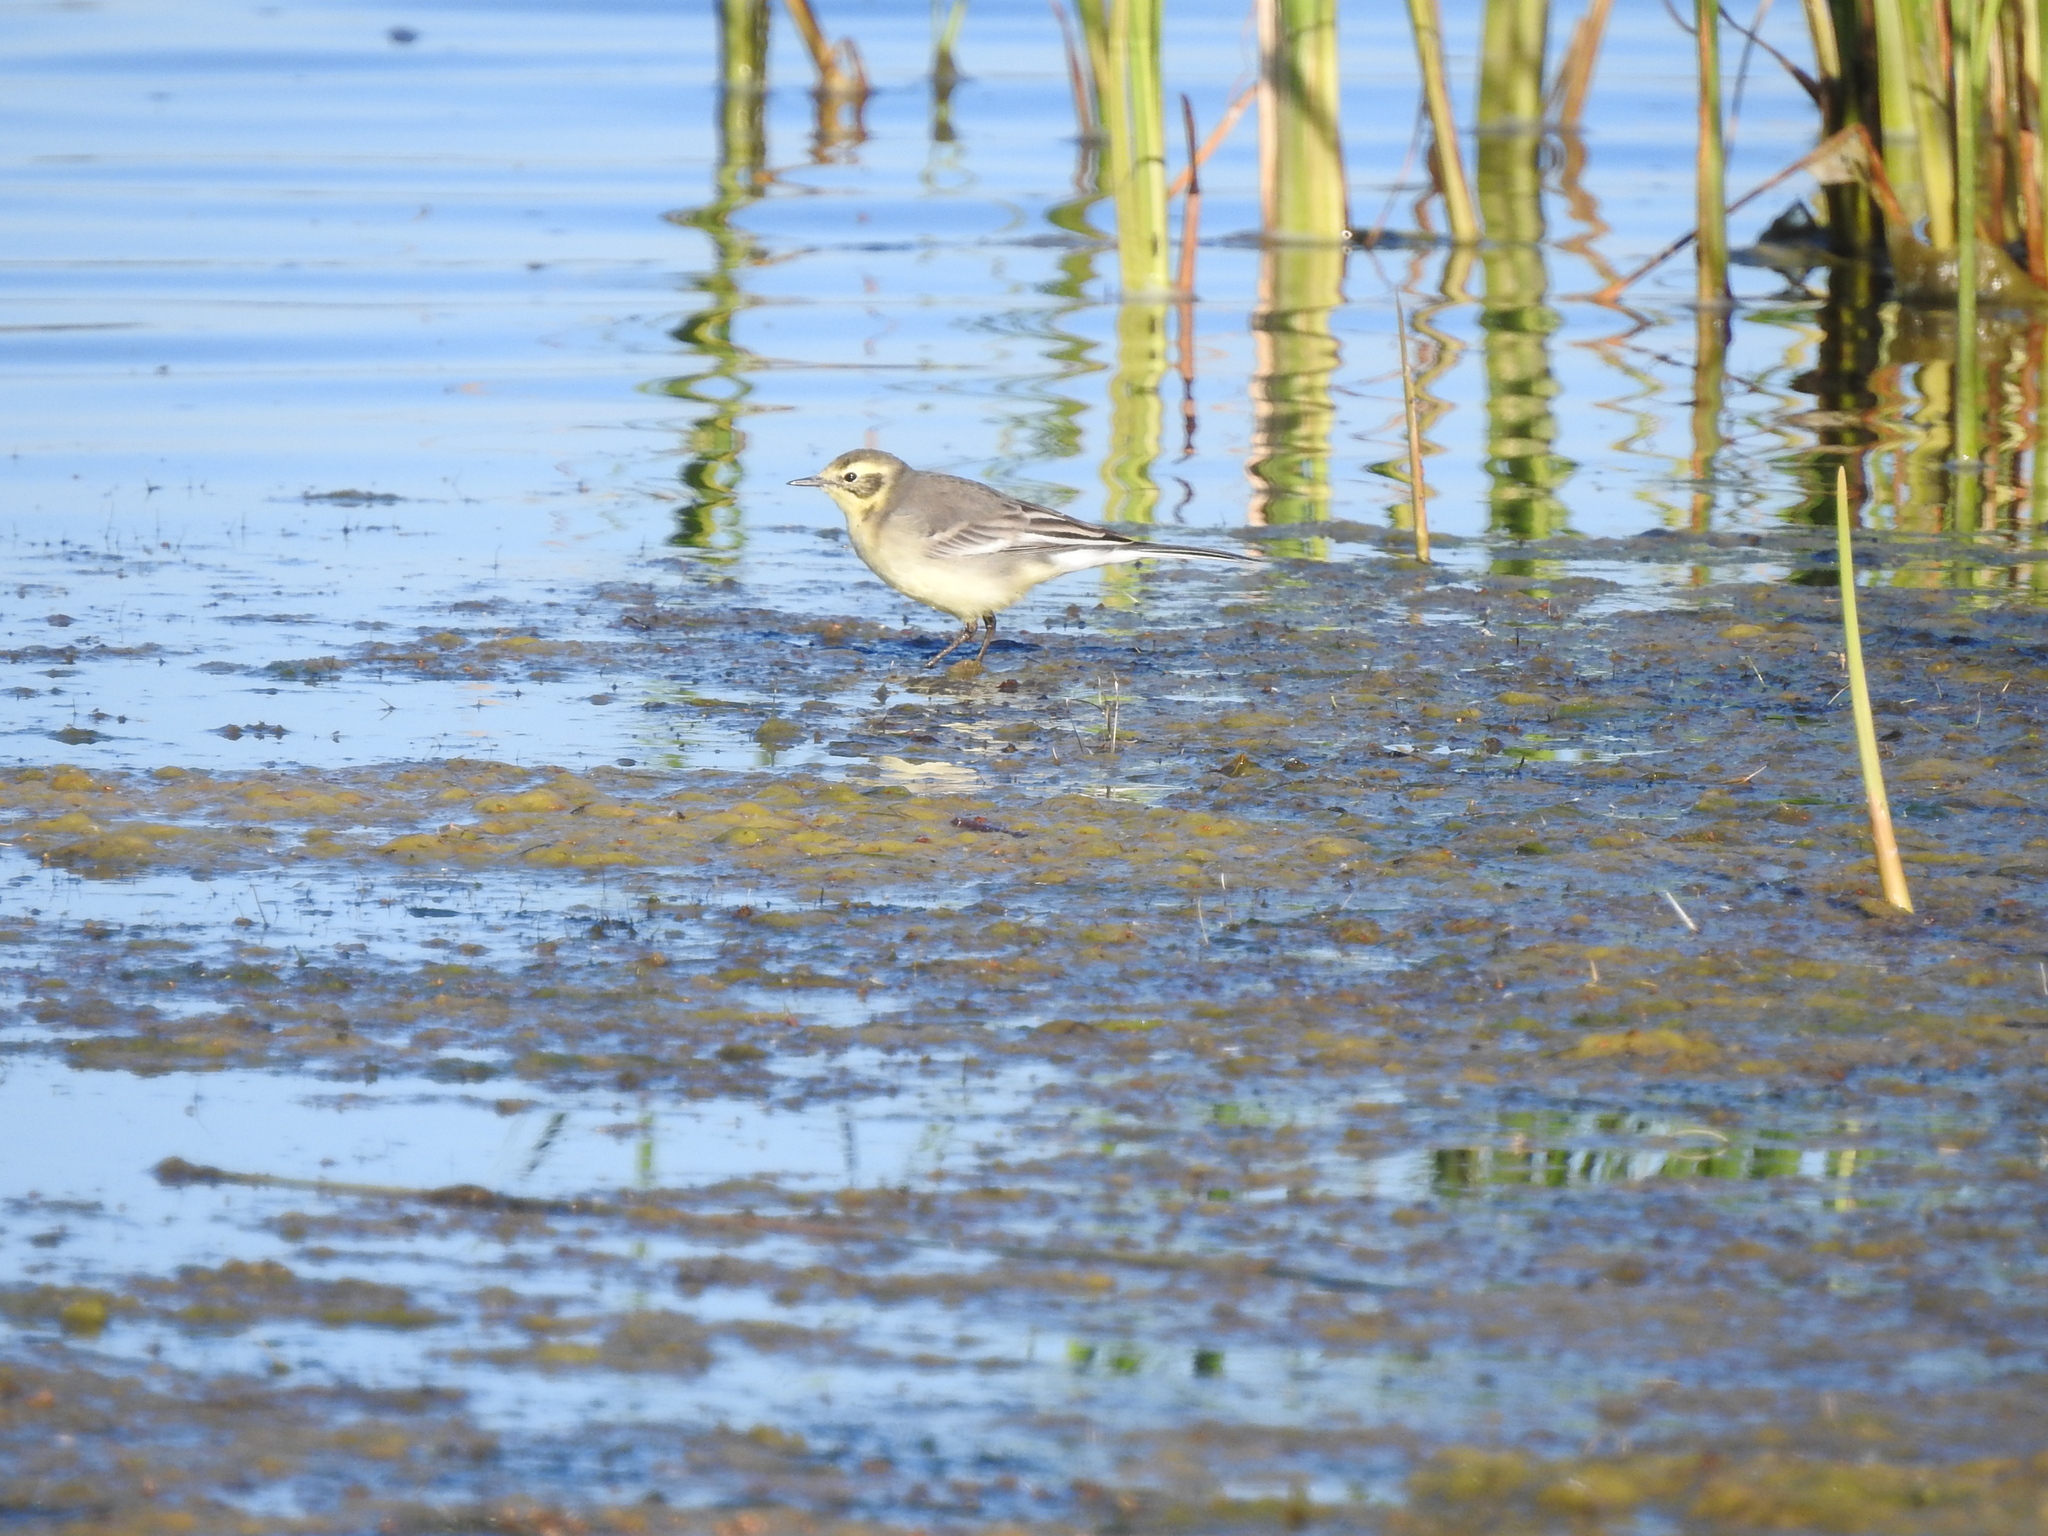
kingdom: Animalia
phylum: Chordata
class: Aves
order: Passeriformes
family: Motacillidae
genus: Motacilla
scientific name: Motacilla citreola
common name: Citrine wagtail
